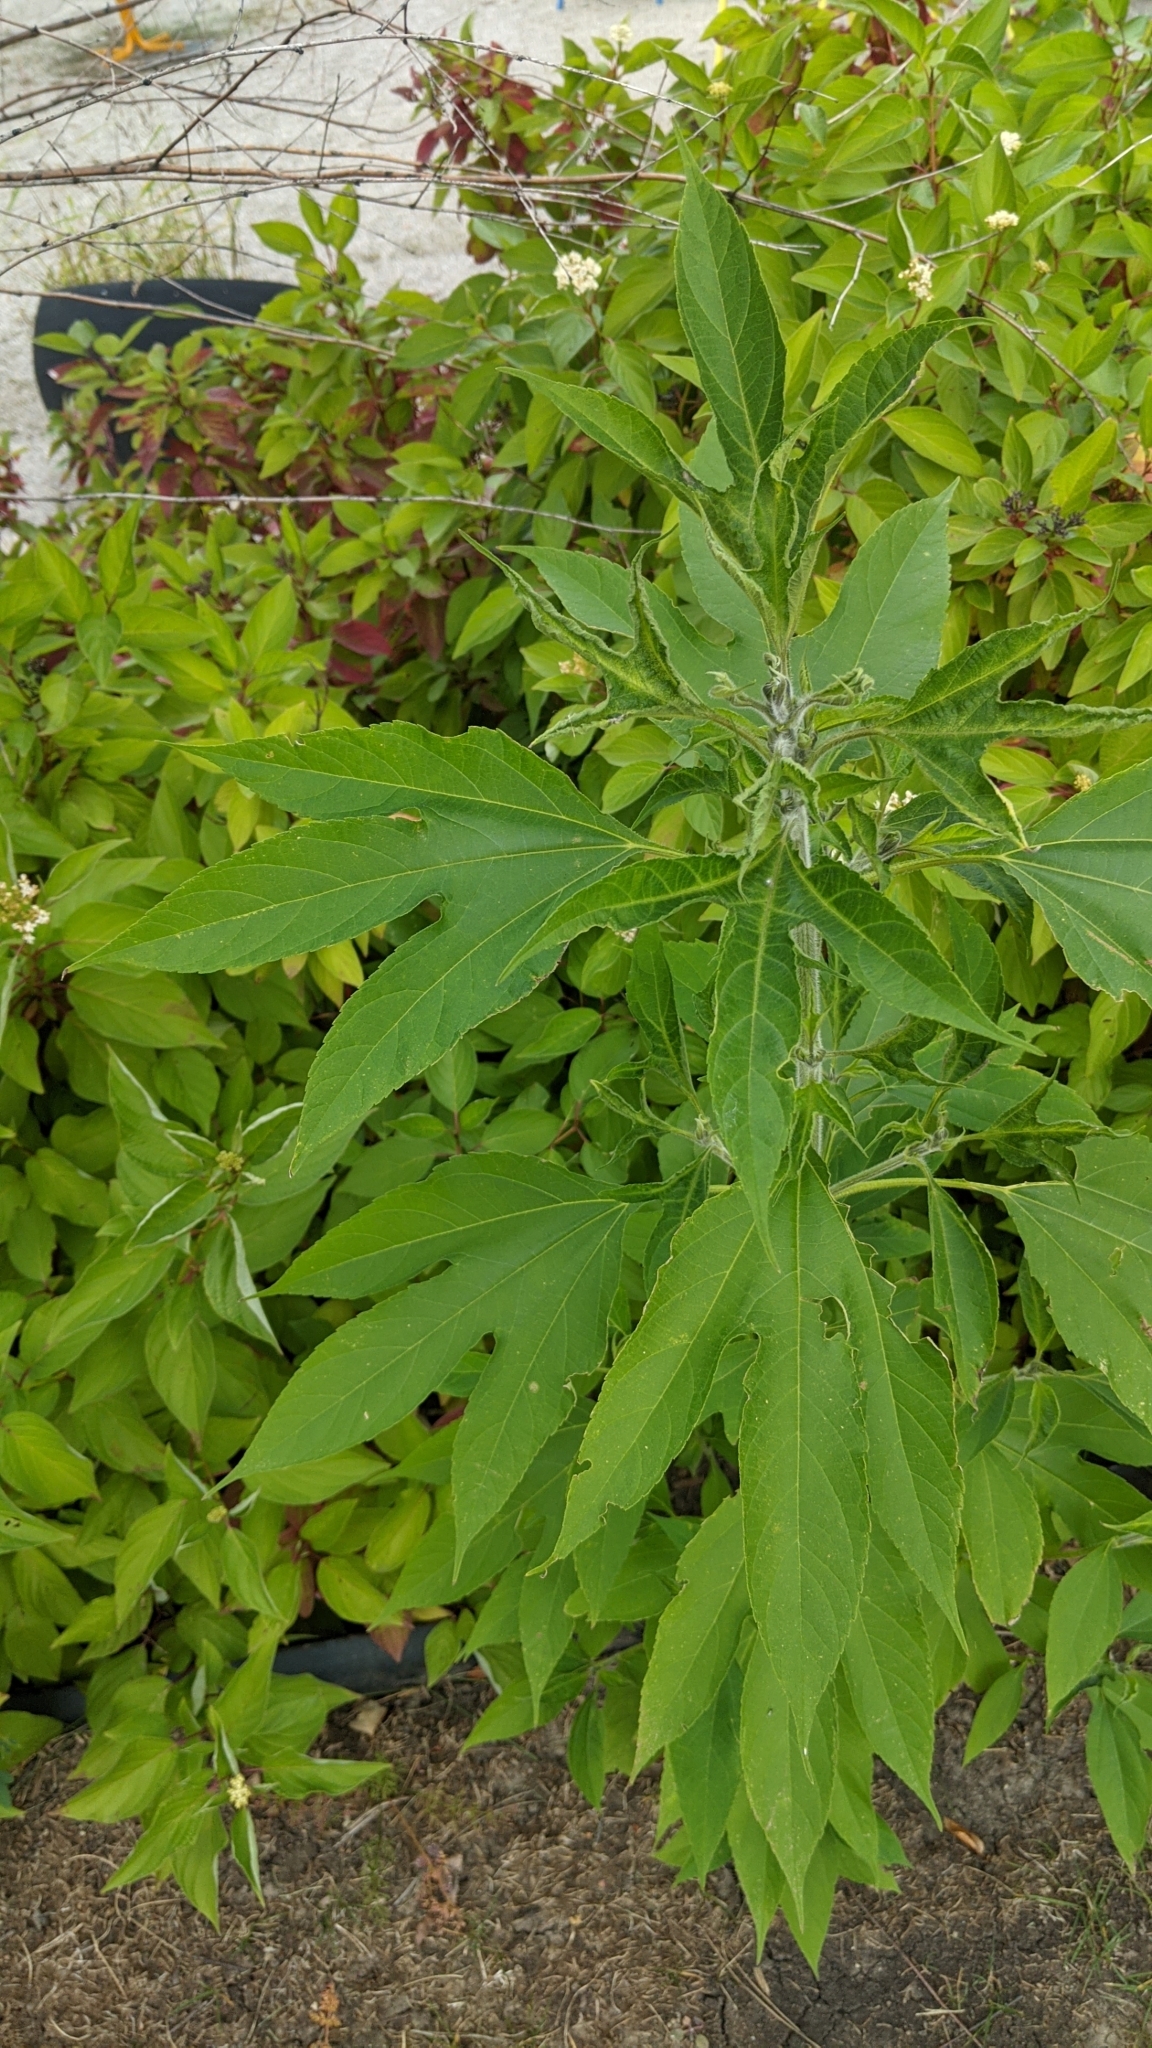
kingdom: Plantae
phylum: Tracheophyta
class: Magnoliopsida
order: Asterales
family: Asteraceae
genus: Ambrosia
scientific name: Ambrosia trifida
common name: Giant ragweed
